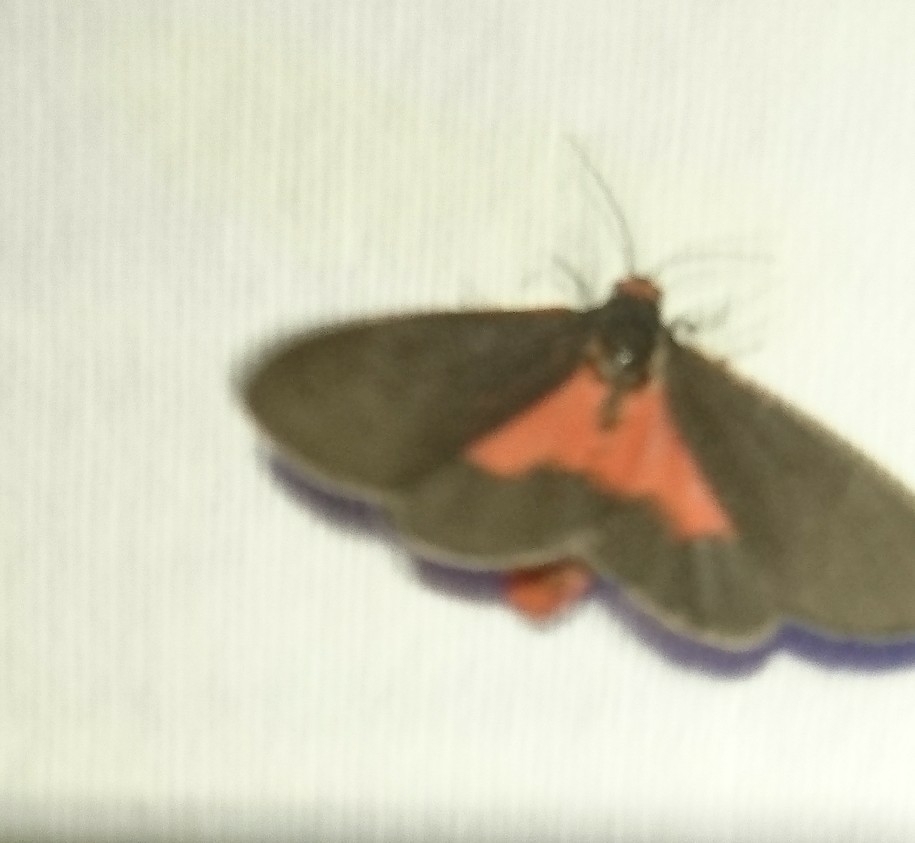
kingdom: Animalia
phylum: Arthropoda
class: Insecta
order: Lepidoptera
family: Erebidae
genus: Virbia
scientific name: Virbia laeta
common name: Joyful holomelina moth
